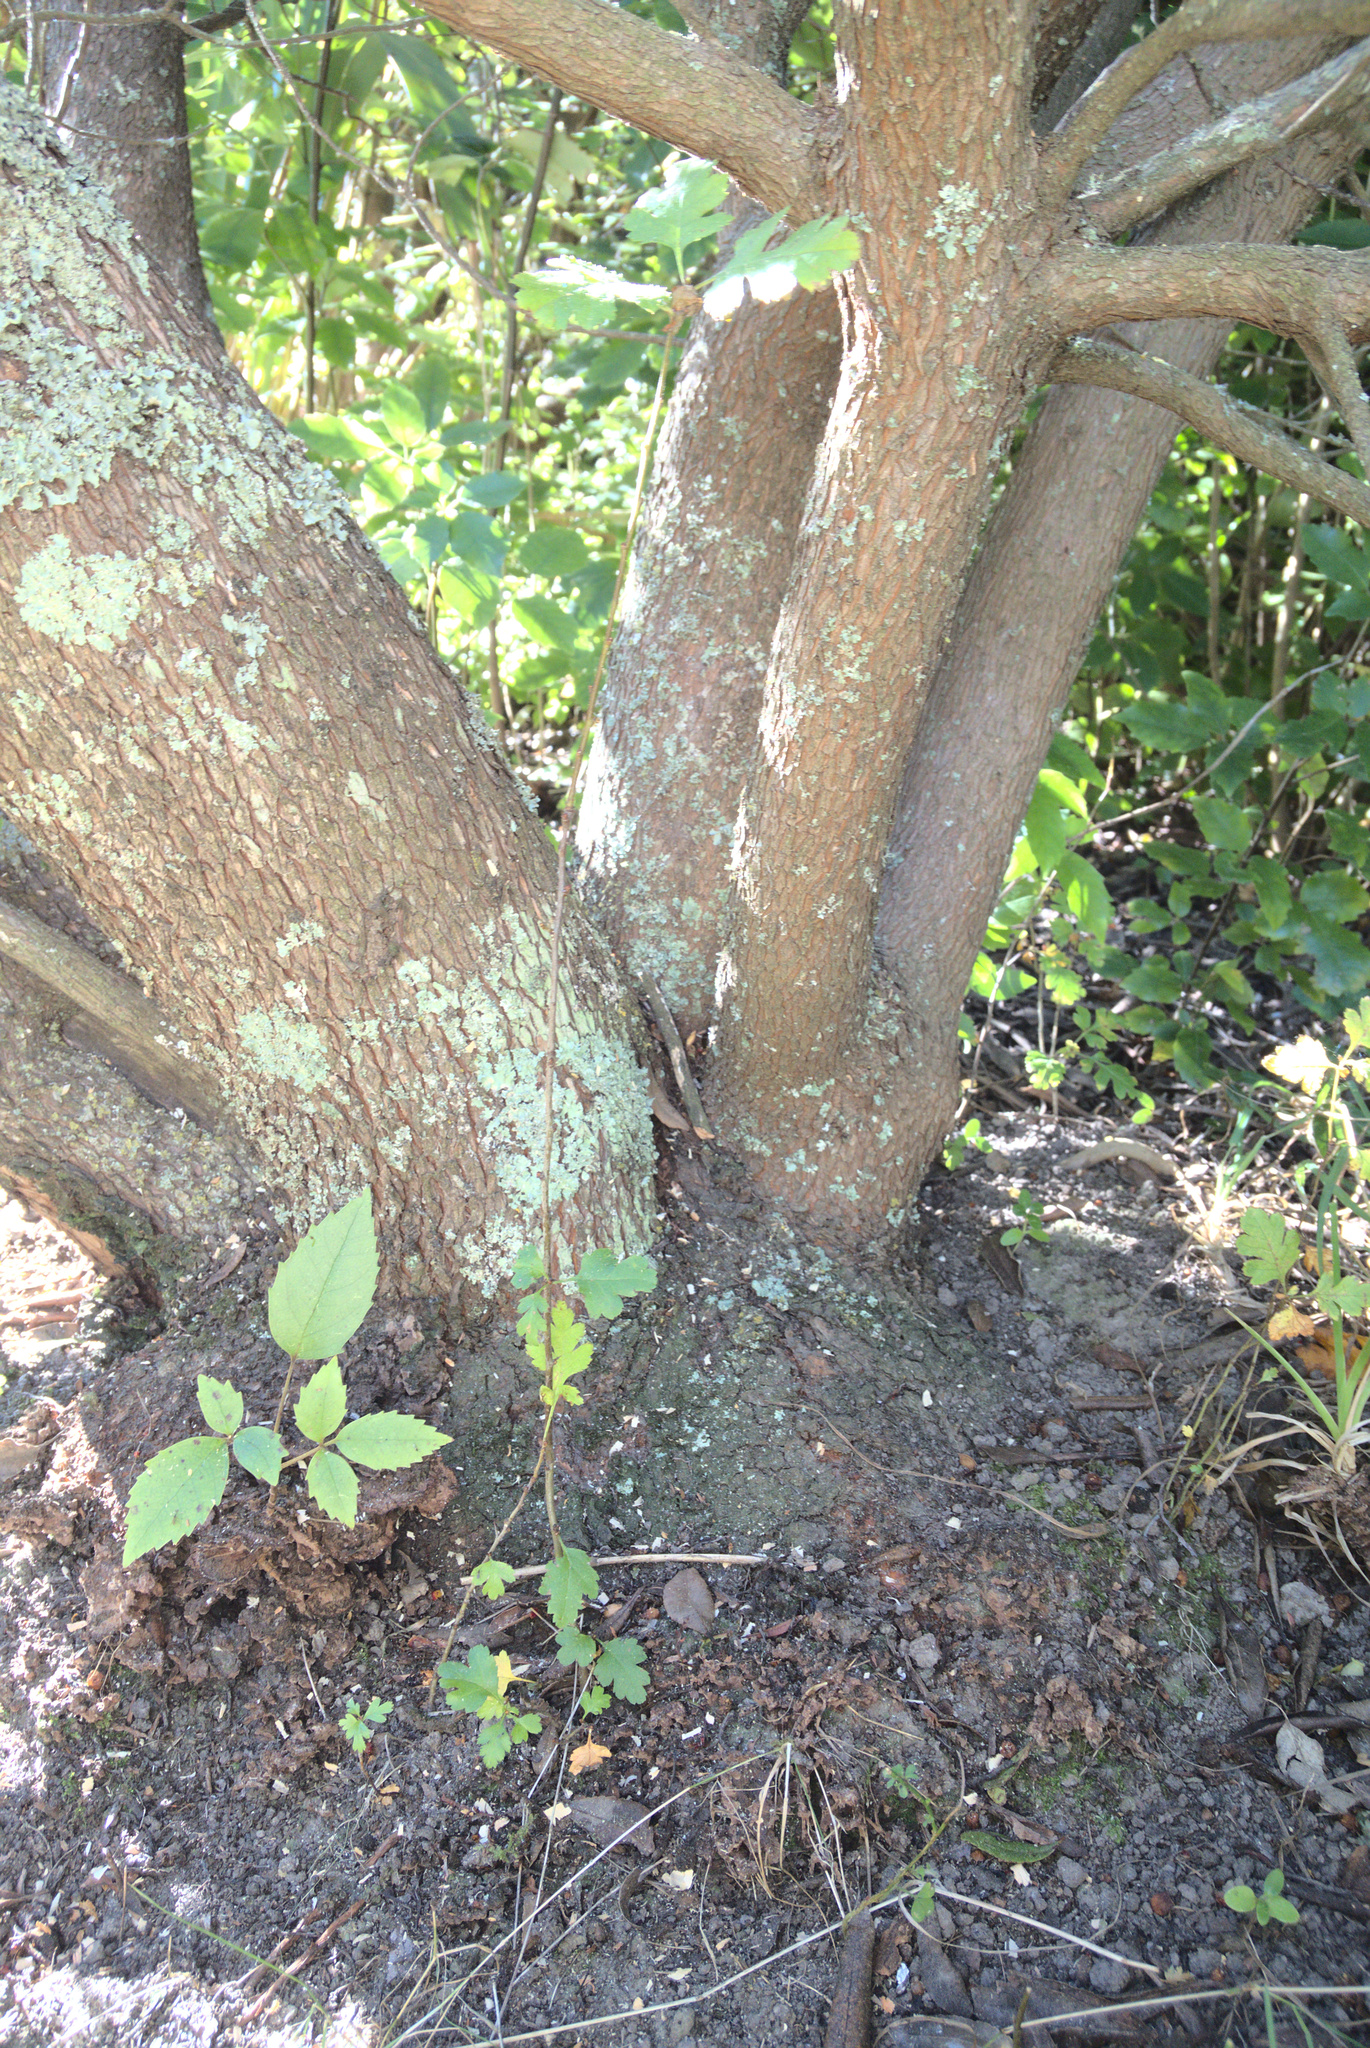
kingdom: Plantae
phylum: Tracheophyta
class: Magnoliopsida
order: Rosales
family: Rosaceae
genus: Crataegus
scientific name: Crataegus monogyna
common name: Hawthorn
